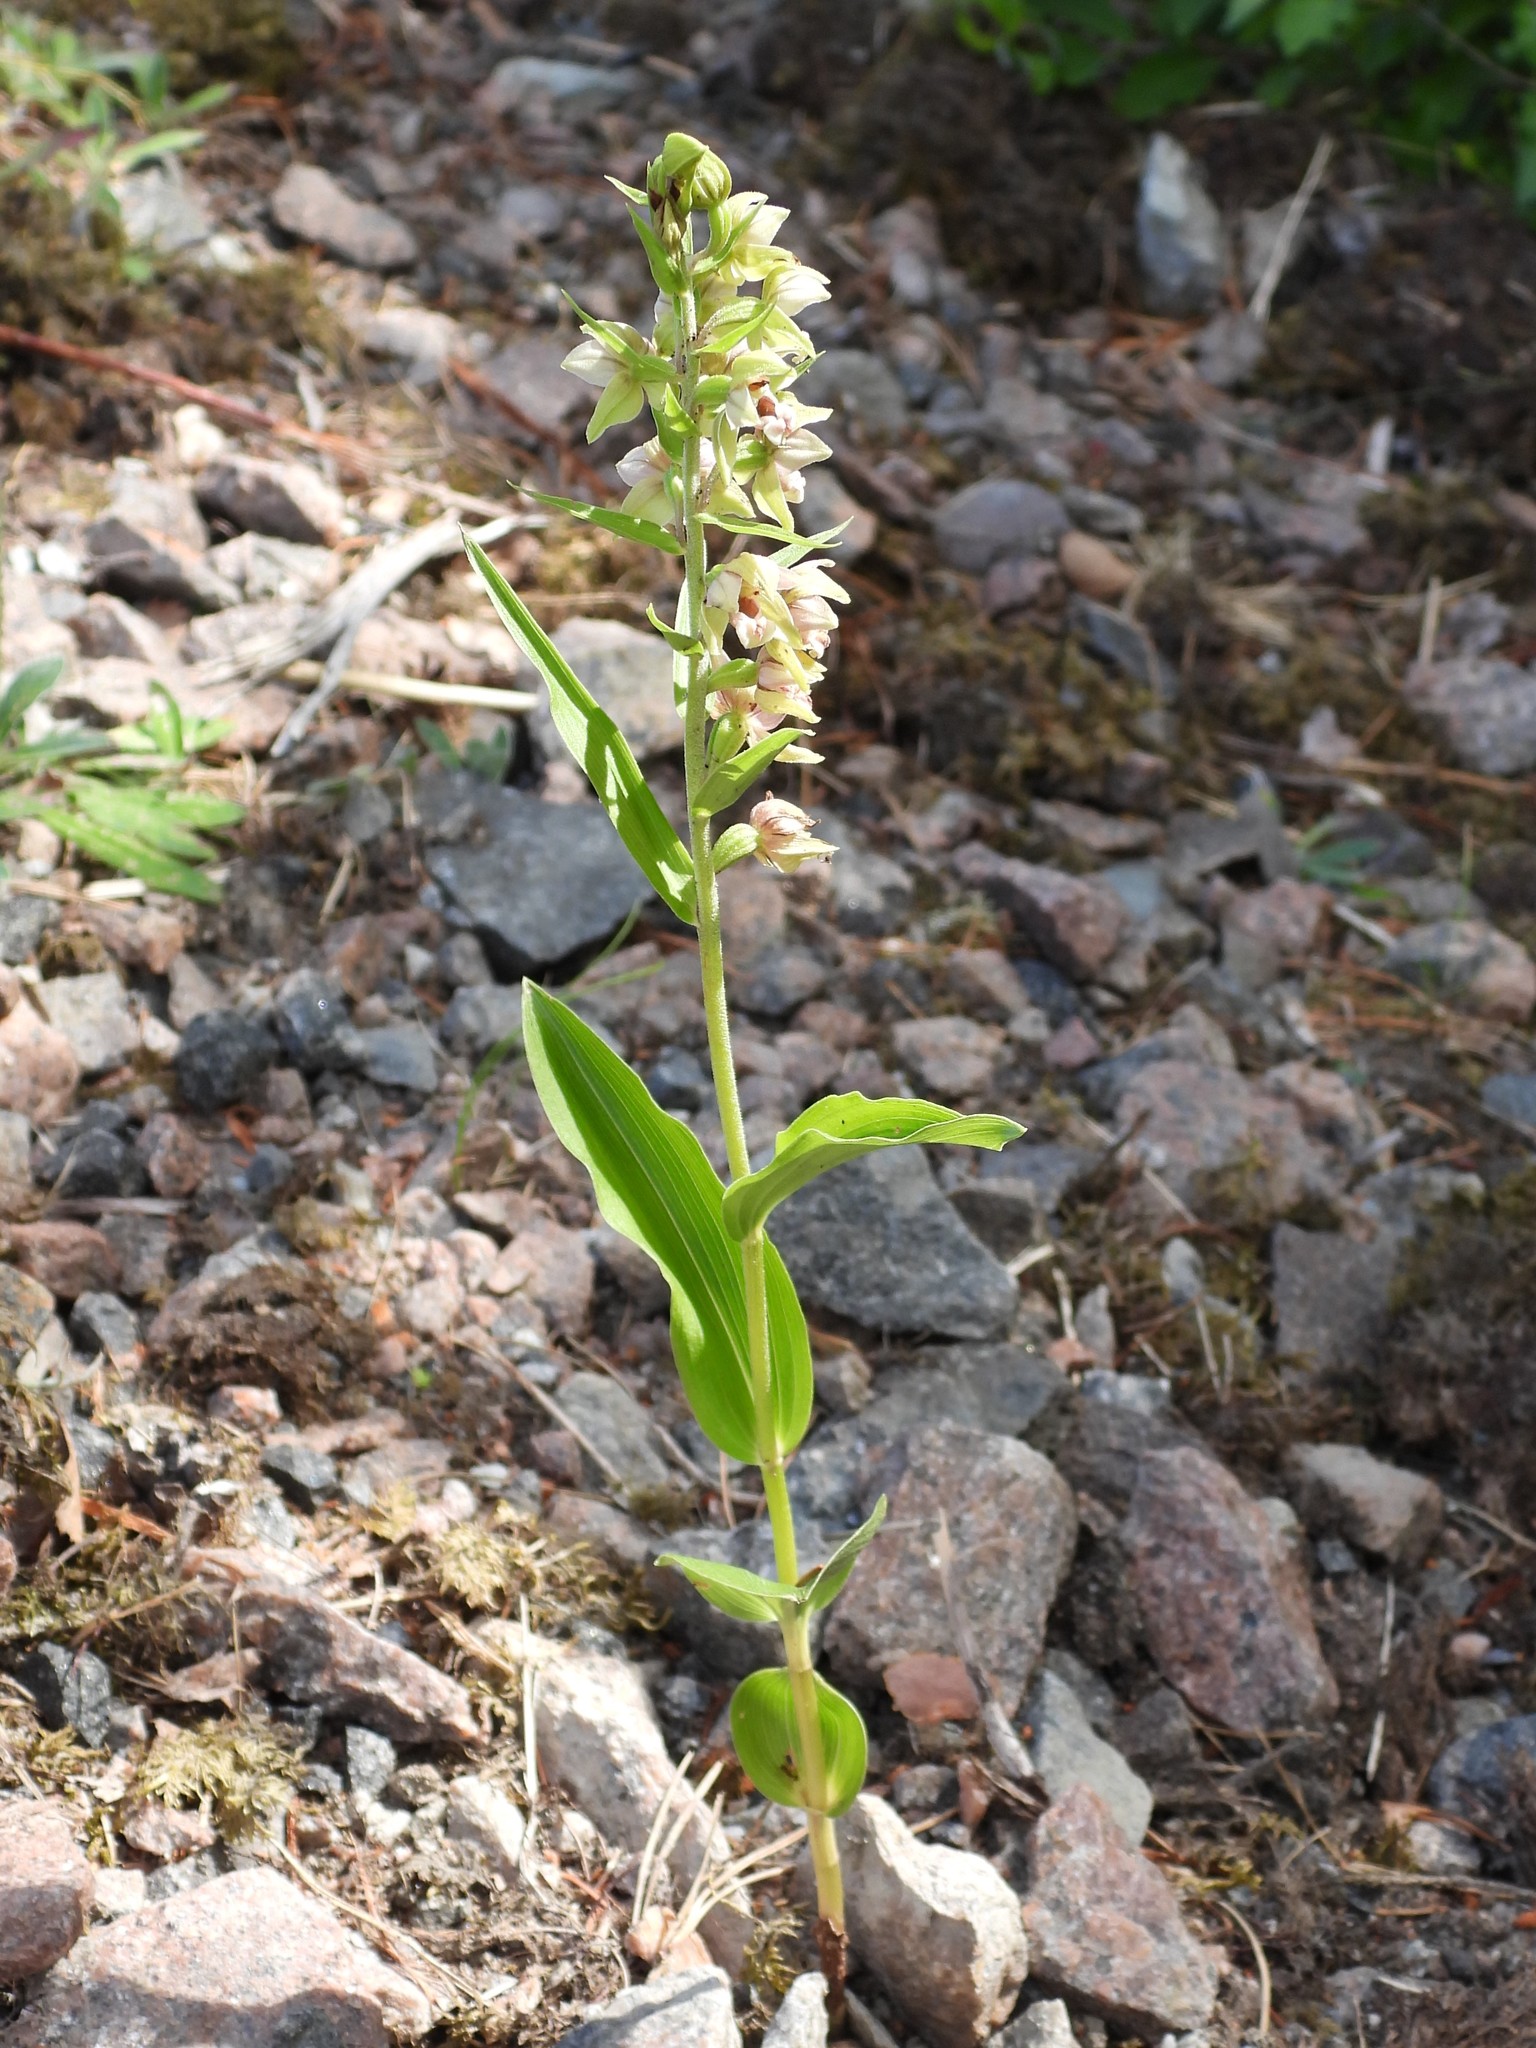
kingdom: Plantae
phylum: Tracheophyta
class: Liliopsida
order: Asparagales
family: Orchidaceae
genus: Epipactis
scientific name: Epipactis helleborine
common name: Broad-leaved helleborine
